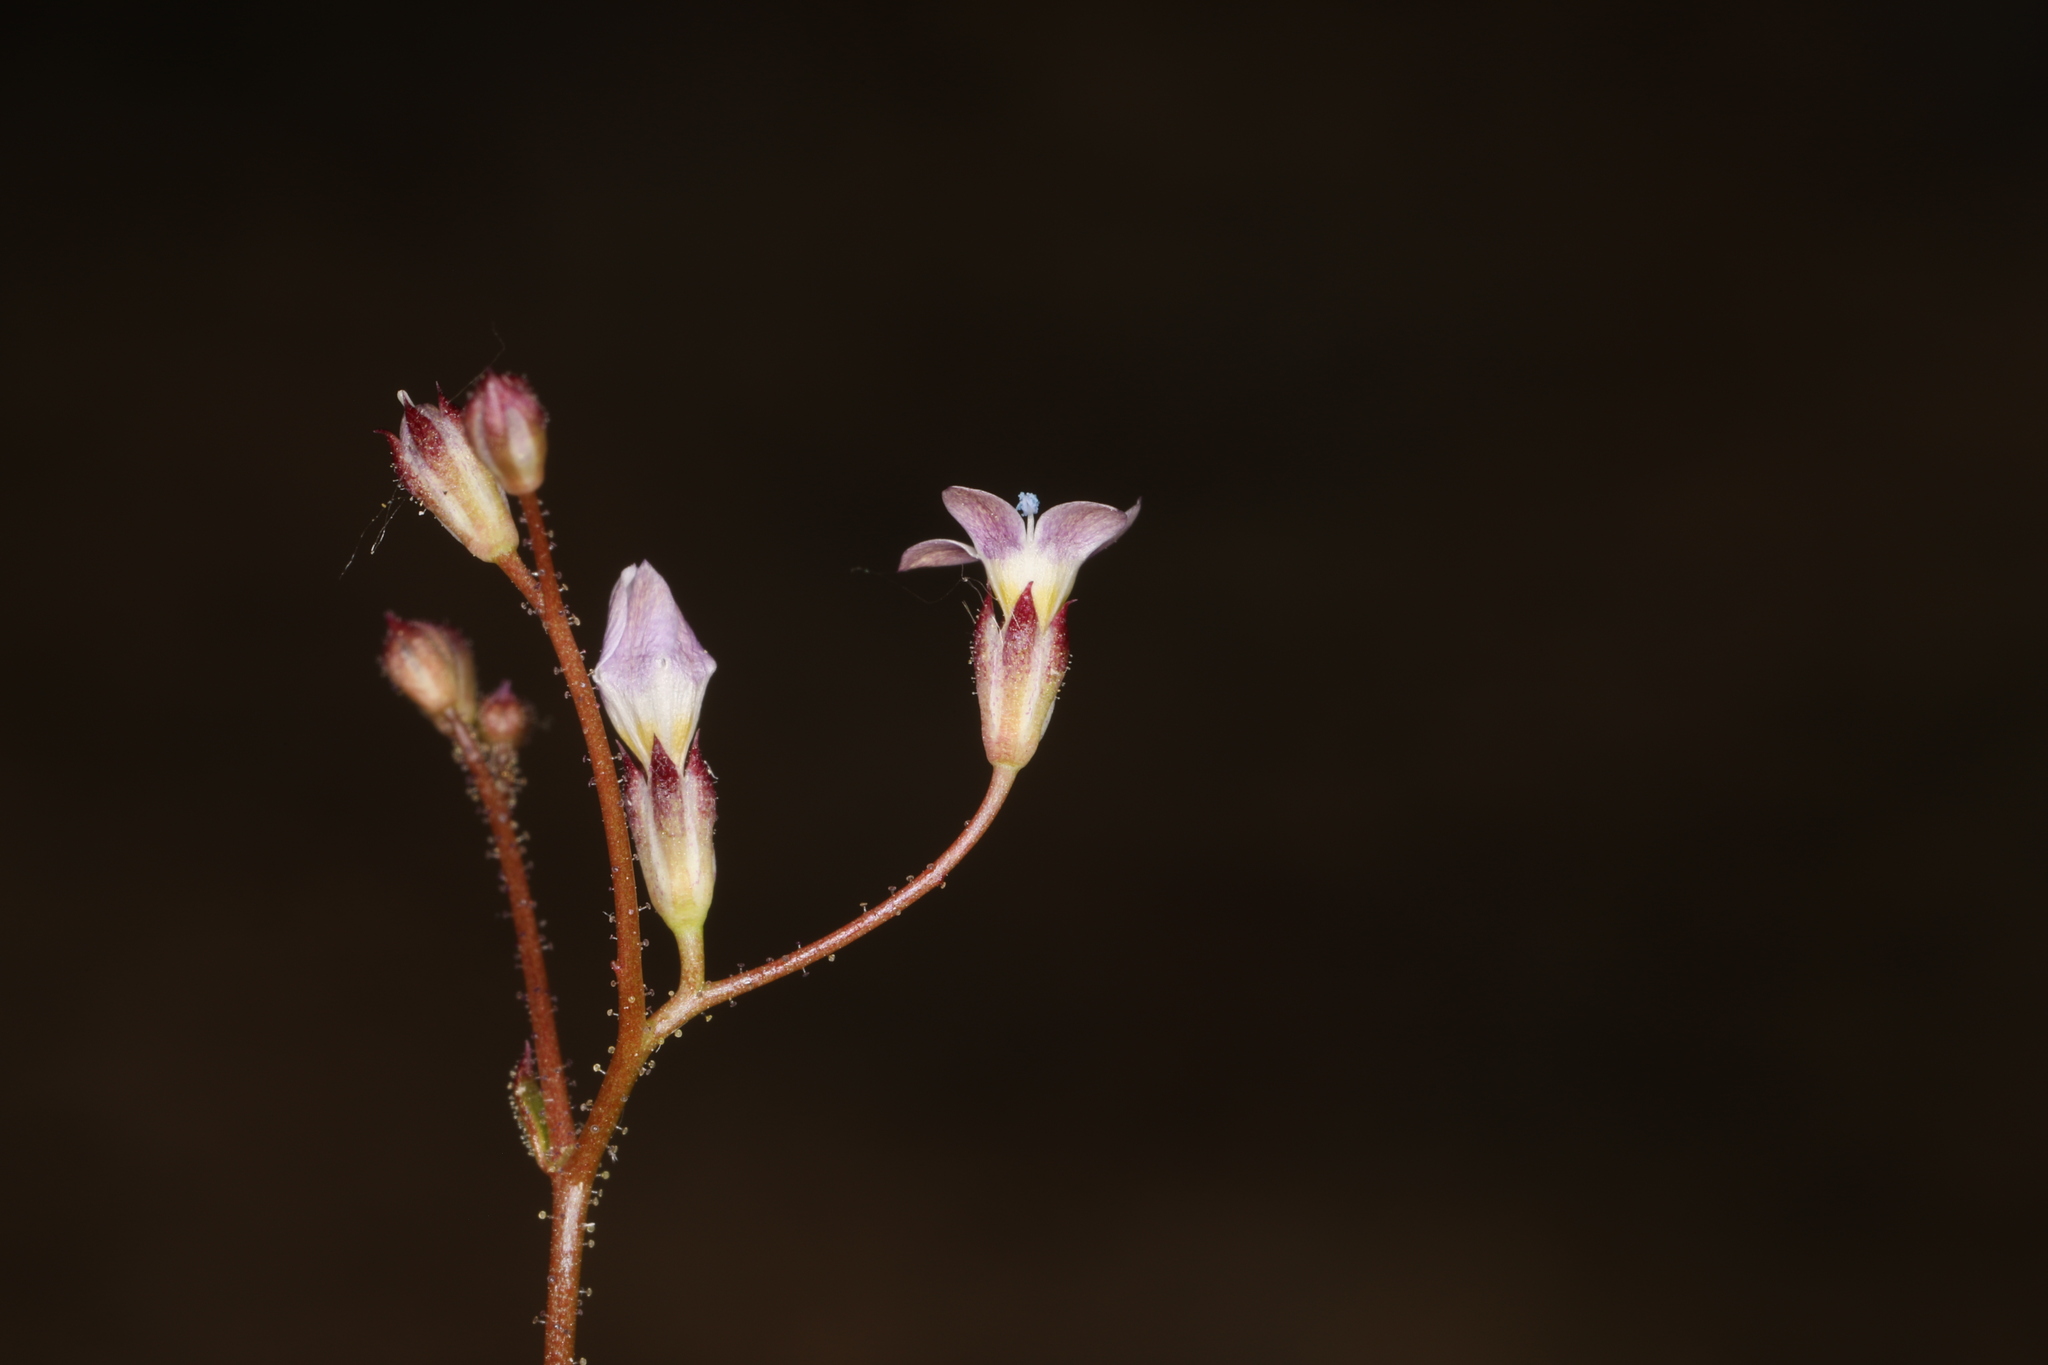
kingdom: Plantae
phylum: Tracheophyta
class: Magnoliopsida
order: Ericales
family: Polemoniaceae
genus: Gilia
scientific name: Gilia clokeyi
